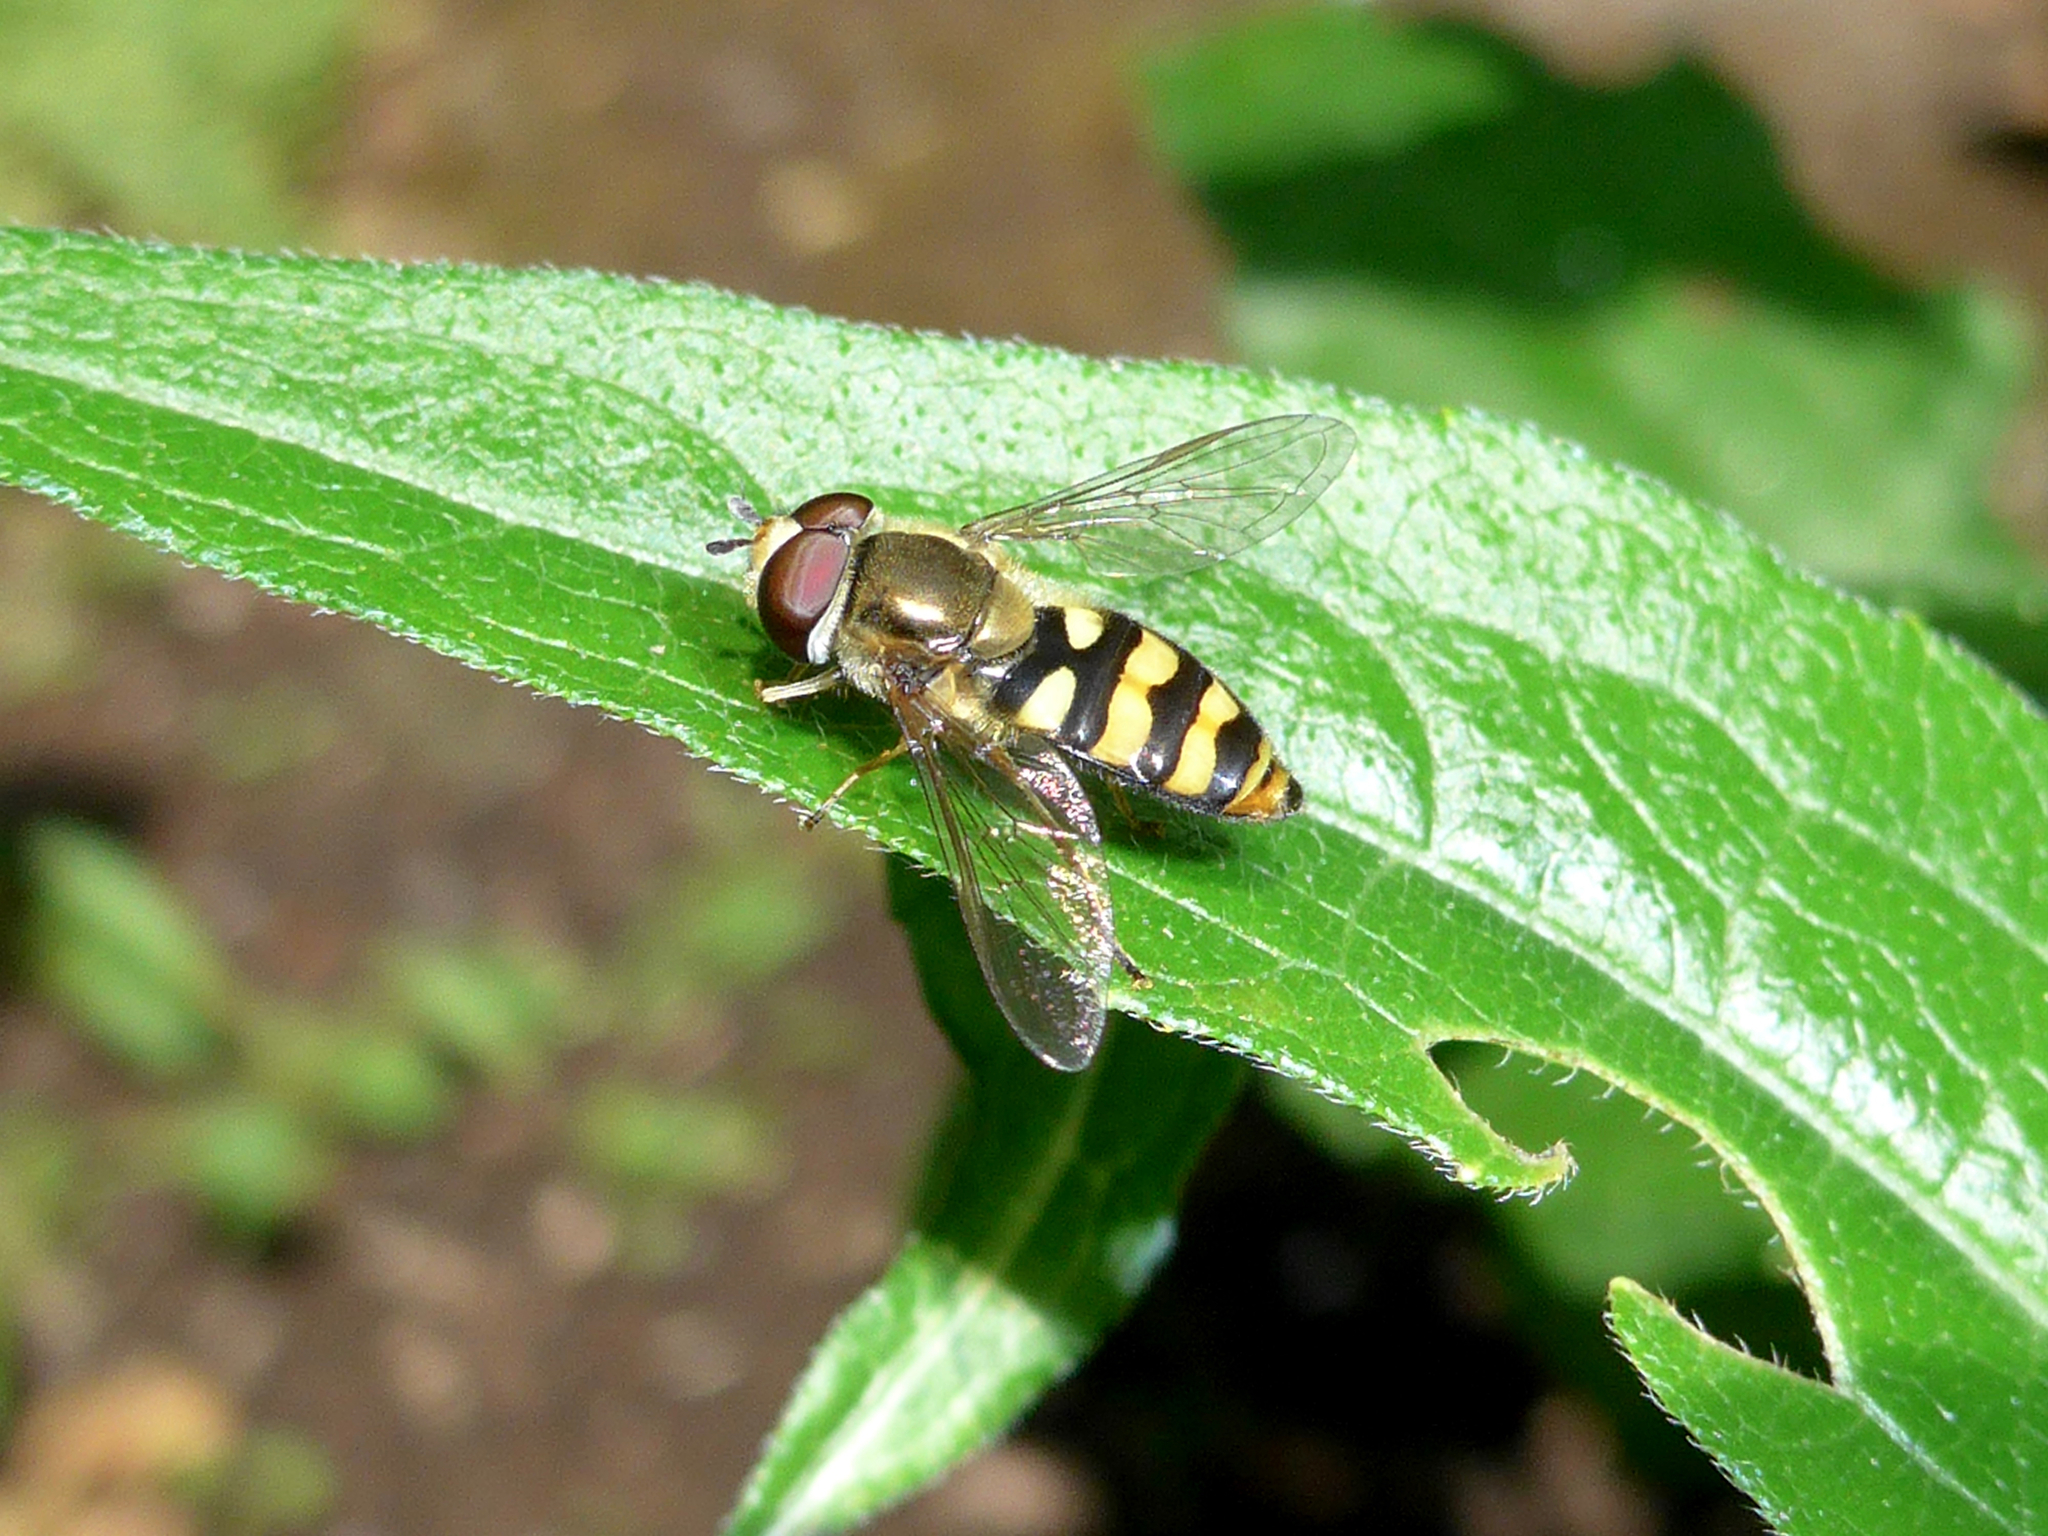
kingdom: Animalia
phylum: Arthropoda
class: Insecta
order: Diptera
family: Syrphidae
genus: Eupeodes
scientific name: Eupeodes fumipennis
